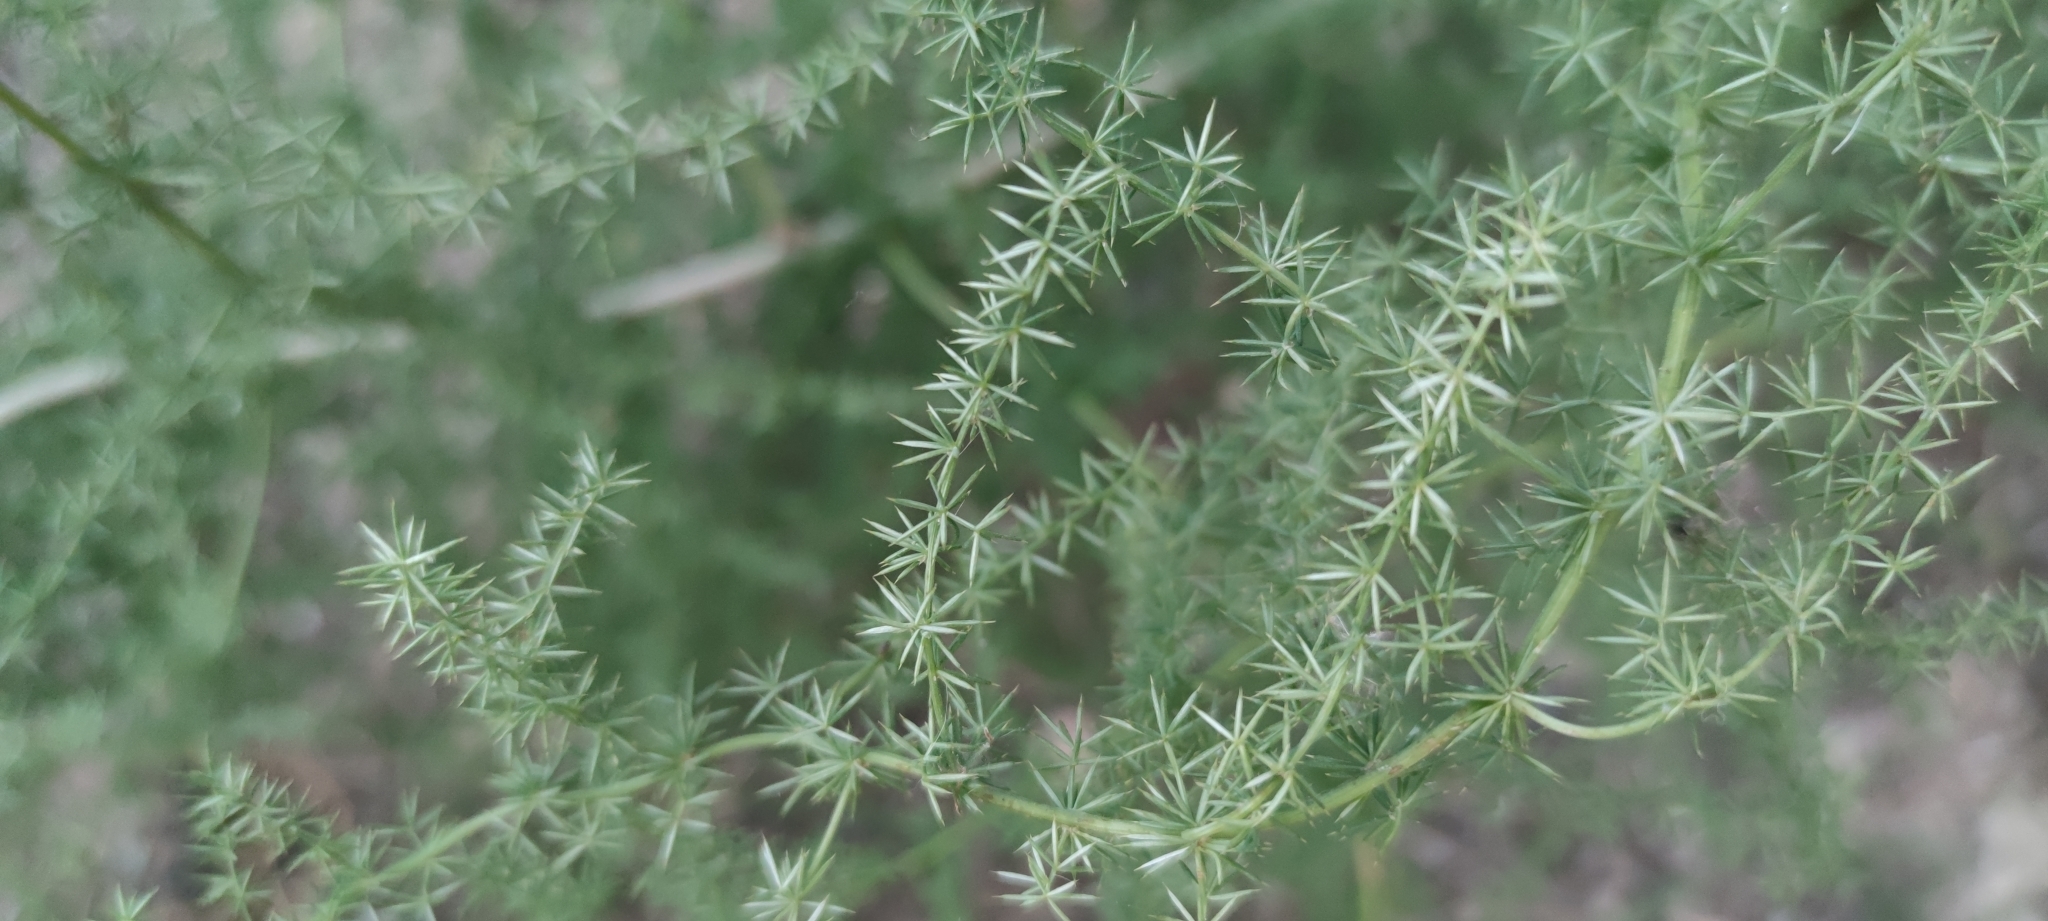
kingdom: Plantae
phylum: Tracheophyta
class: Liliopsida
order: Asparagales
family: Asparagaceae
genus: Asparagus
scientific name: Asparagus acutifolius
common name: Wild asparagus
